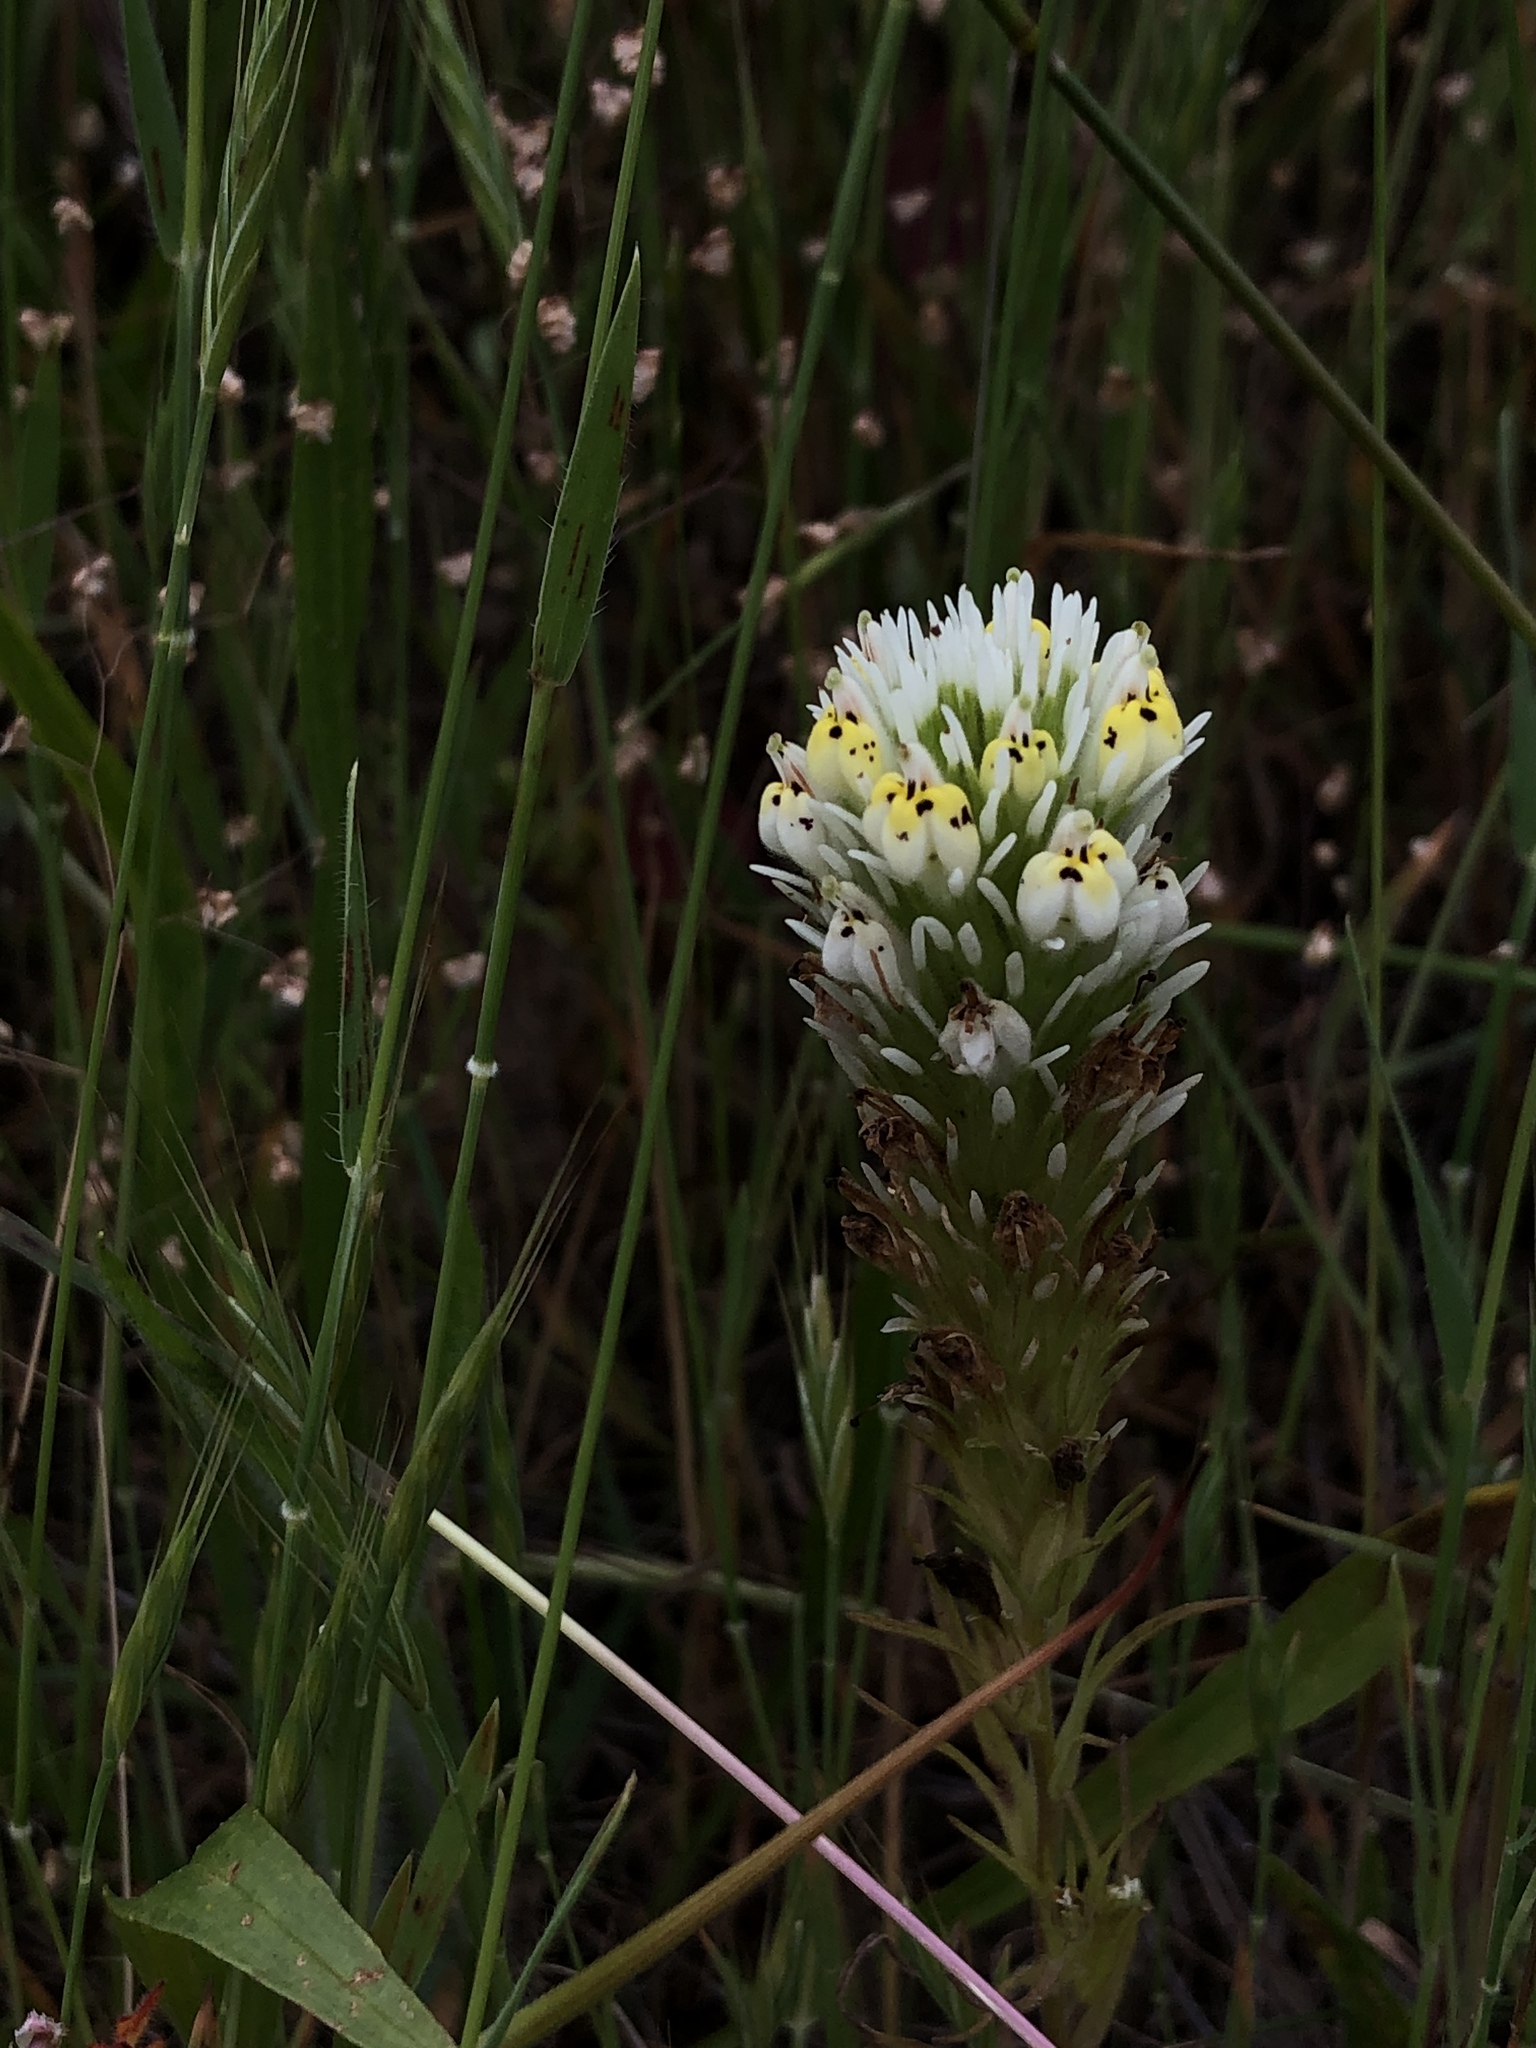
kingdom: Plantae
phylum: Tracheophyta
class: Magnoliopsida
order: Lamiales
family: Orobanchaceae
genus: Castilleja
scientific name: Castilleja densiflora
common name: Dense-flower indian paintbrush
